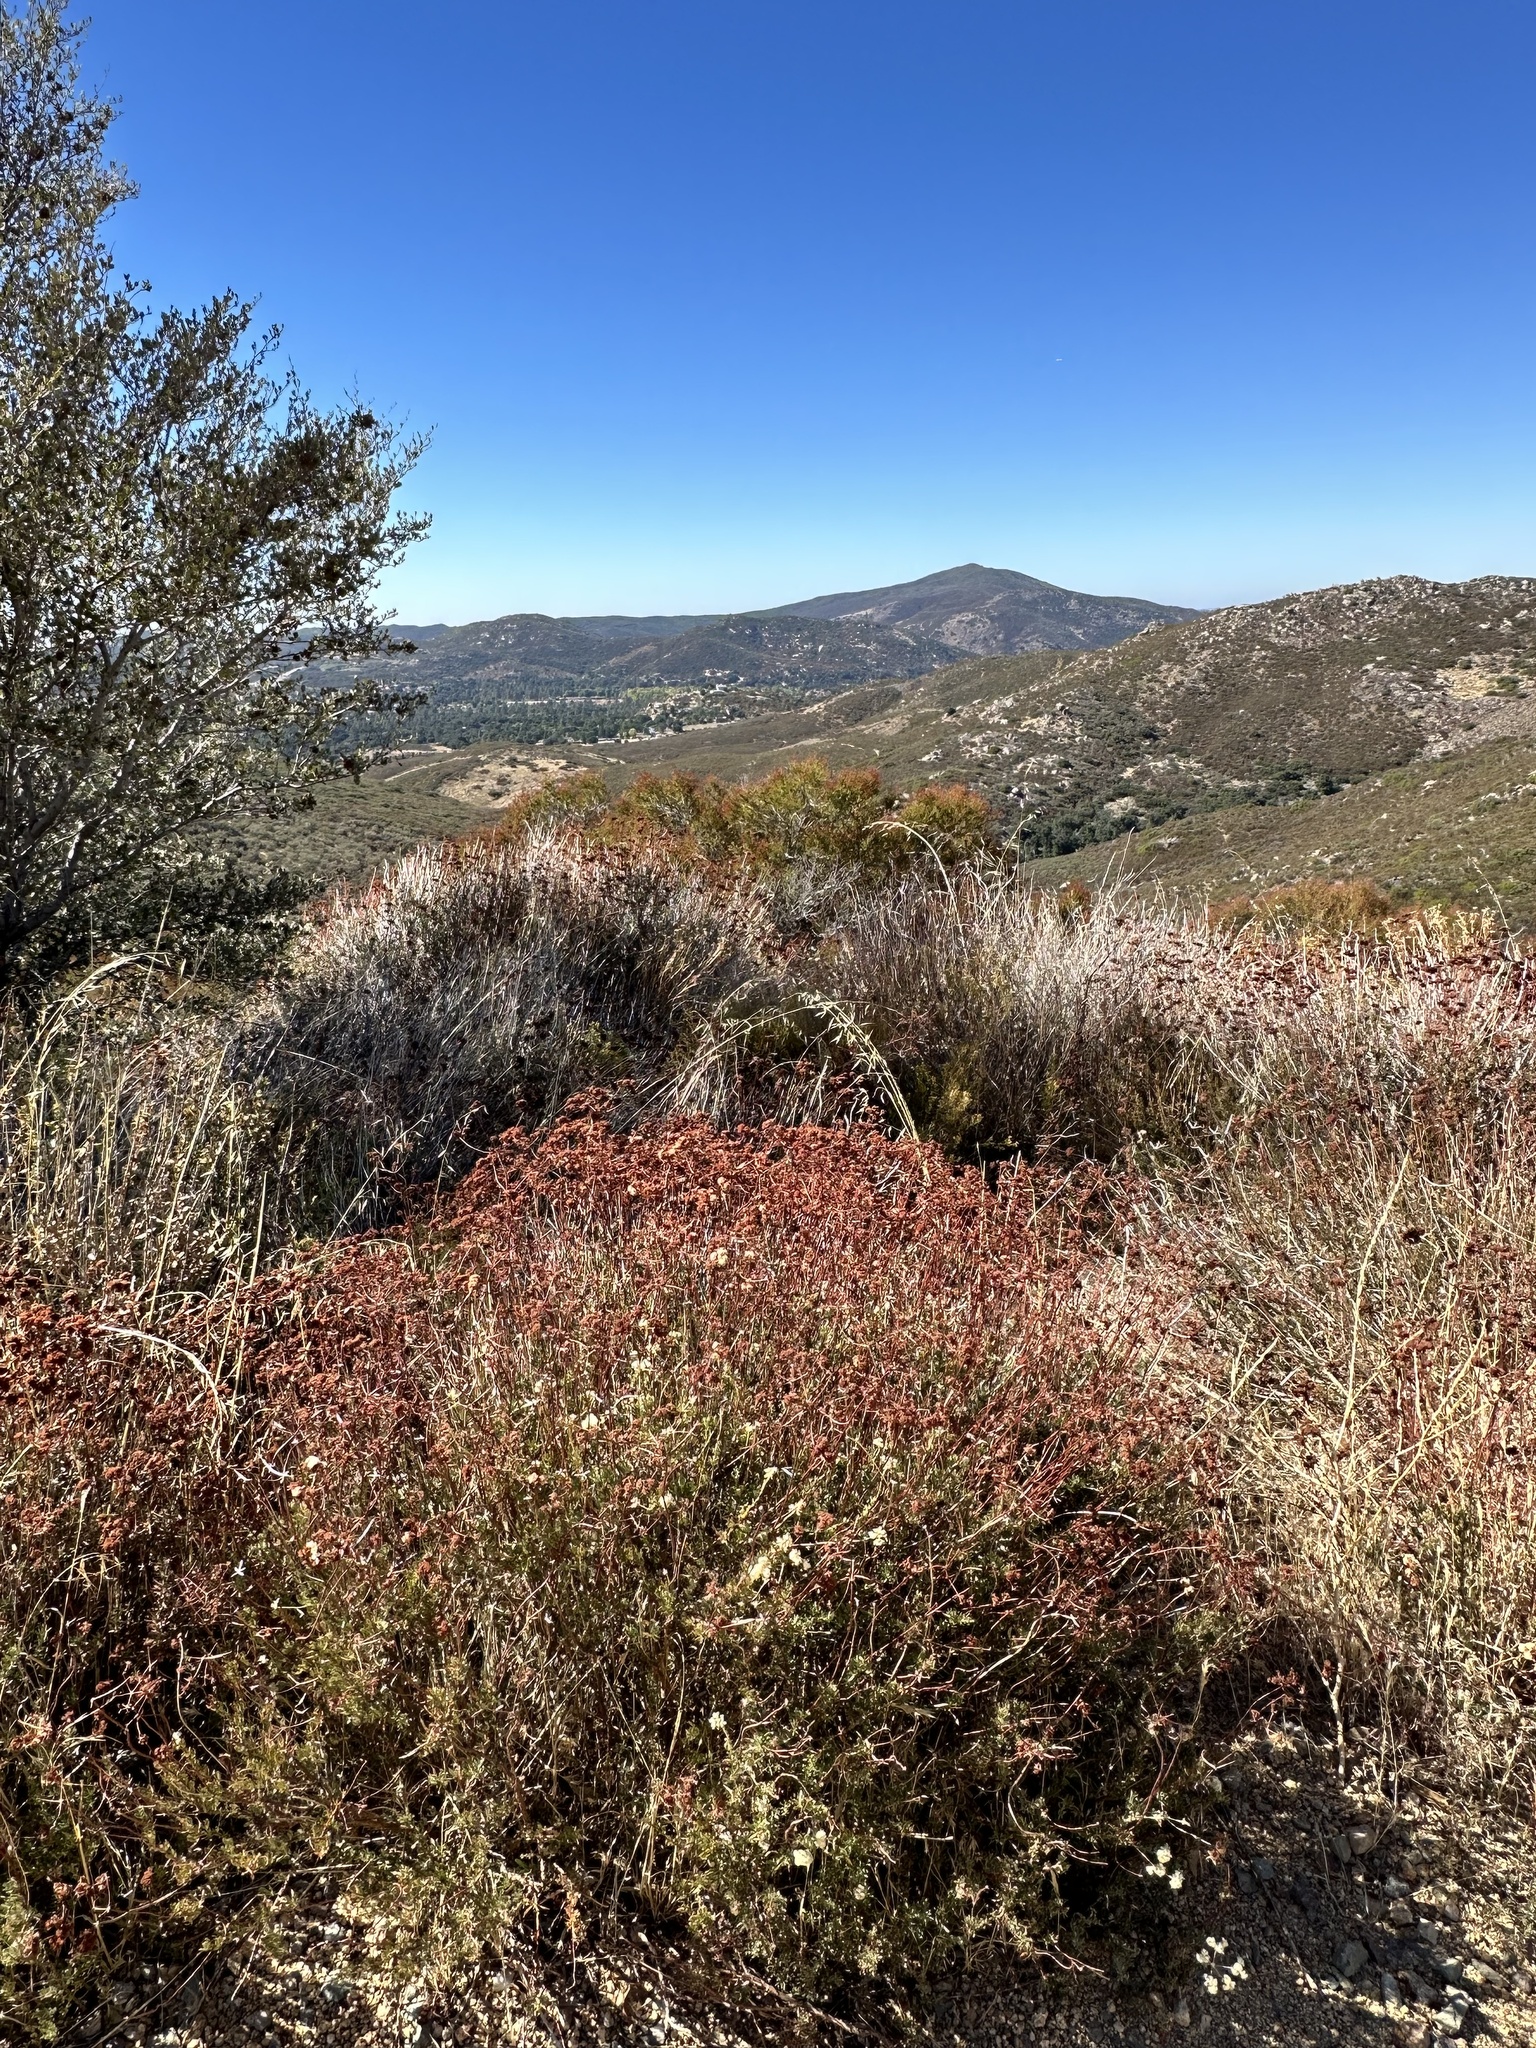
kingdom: Plantae
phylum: Tracheophyta
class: Magnoliopsida
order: Caryophyllales
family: Polygonaceae
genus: Eriogonum
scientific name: Eriogonum fasciculatum
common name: California wild buckwheat
